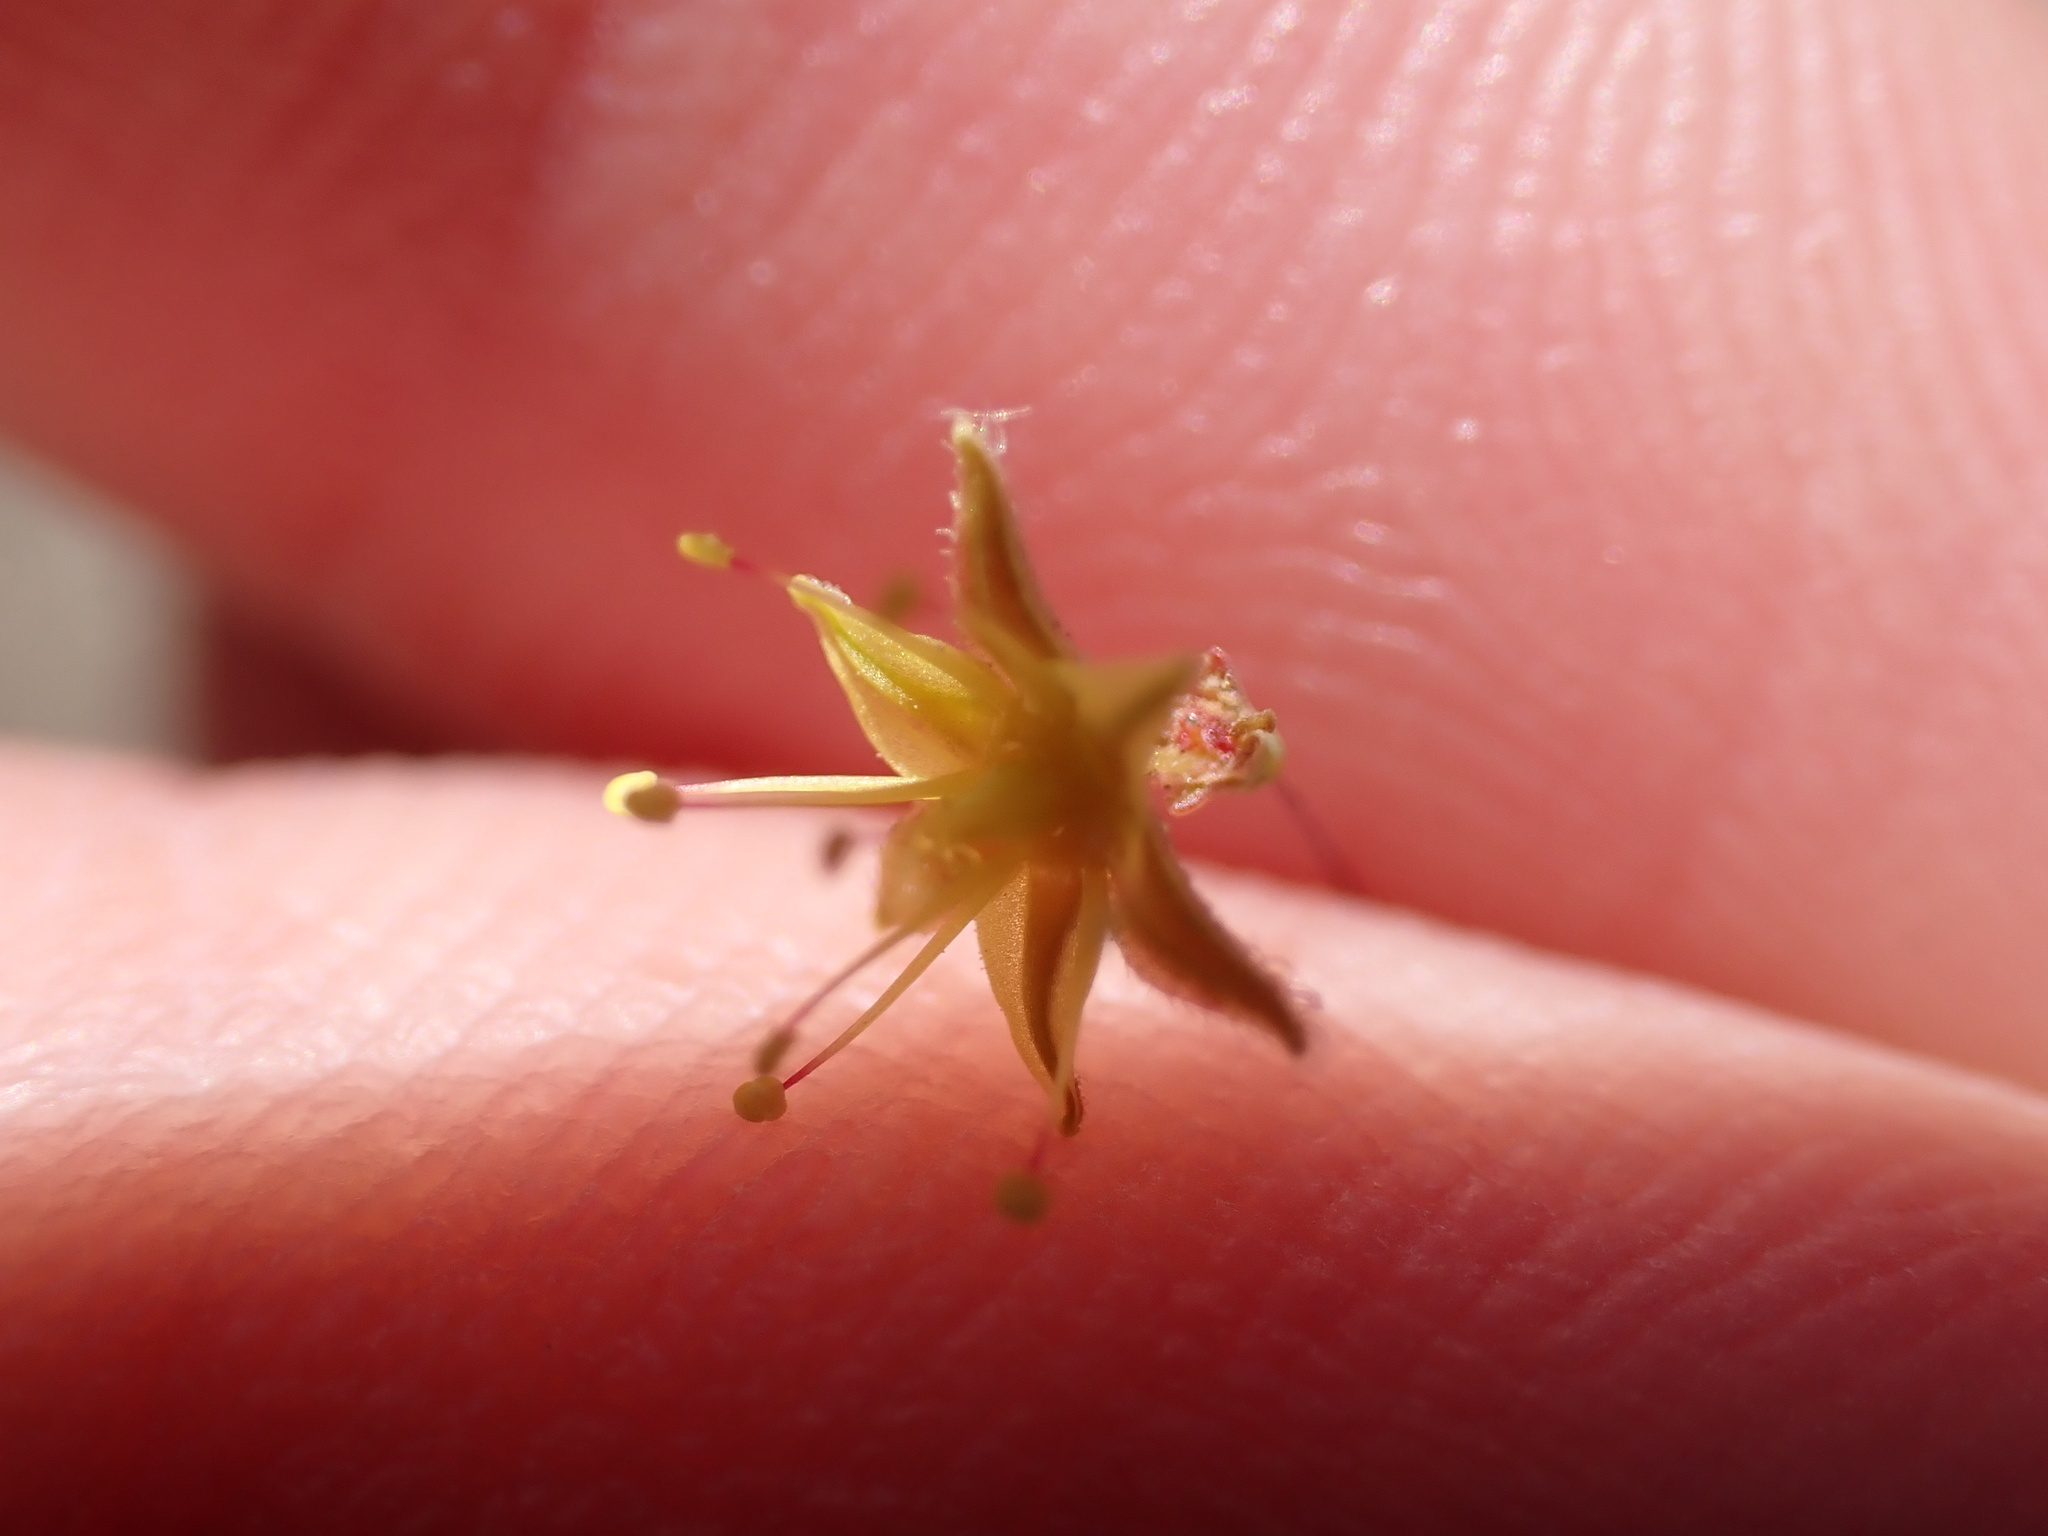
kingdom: Plantae
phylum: Tracheophyta
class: Magnoliopsida
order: Caryophyllales
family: Polygonaceae
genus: Eriogonum
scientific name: Eriogonum inflatum
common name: Desert trumpet
